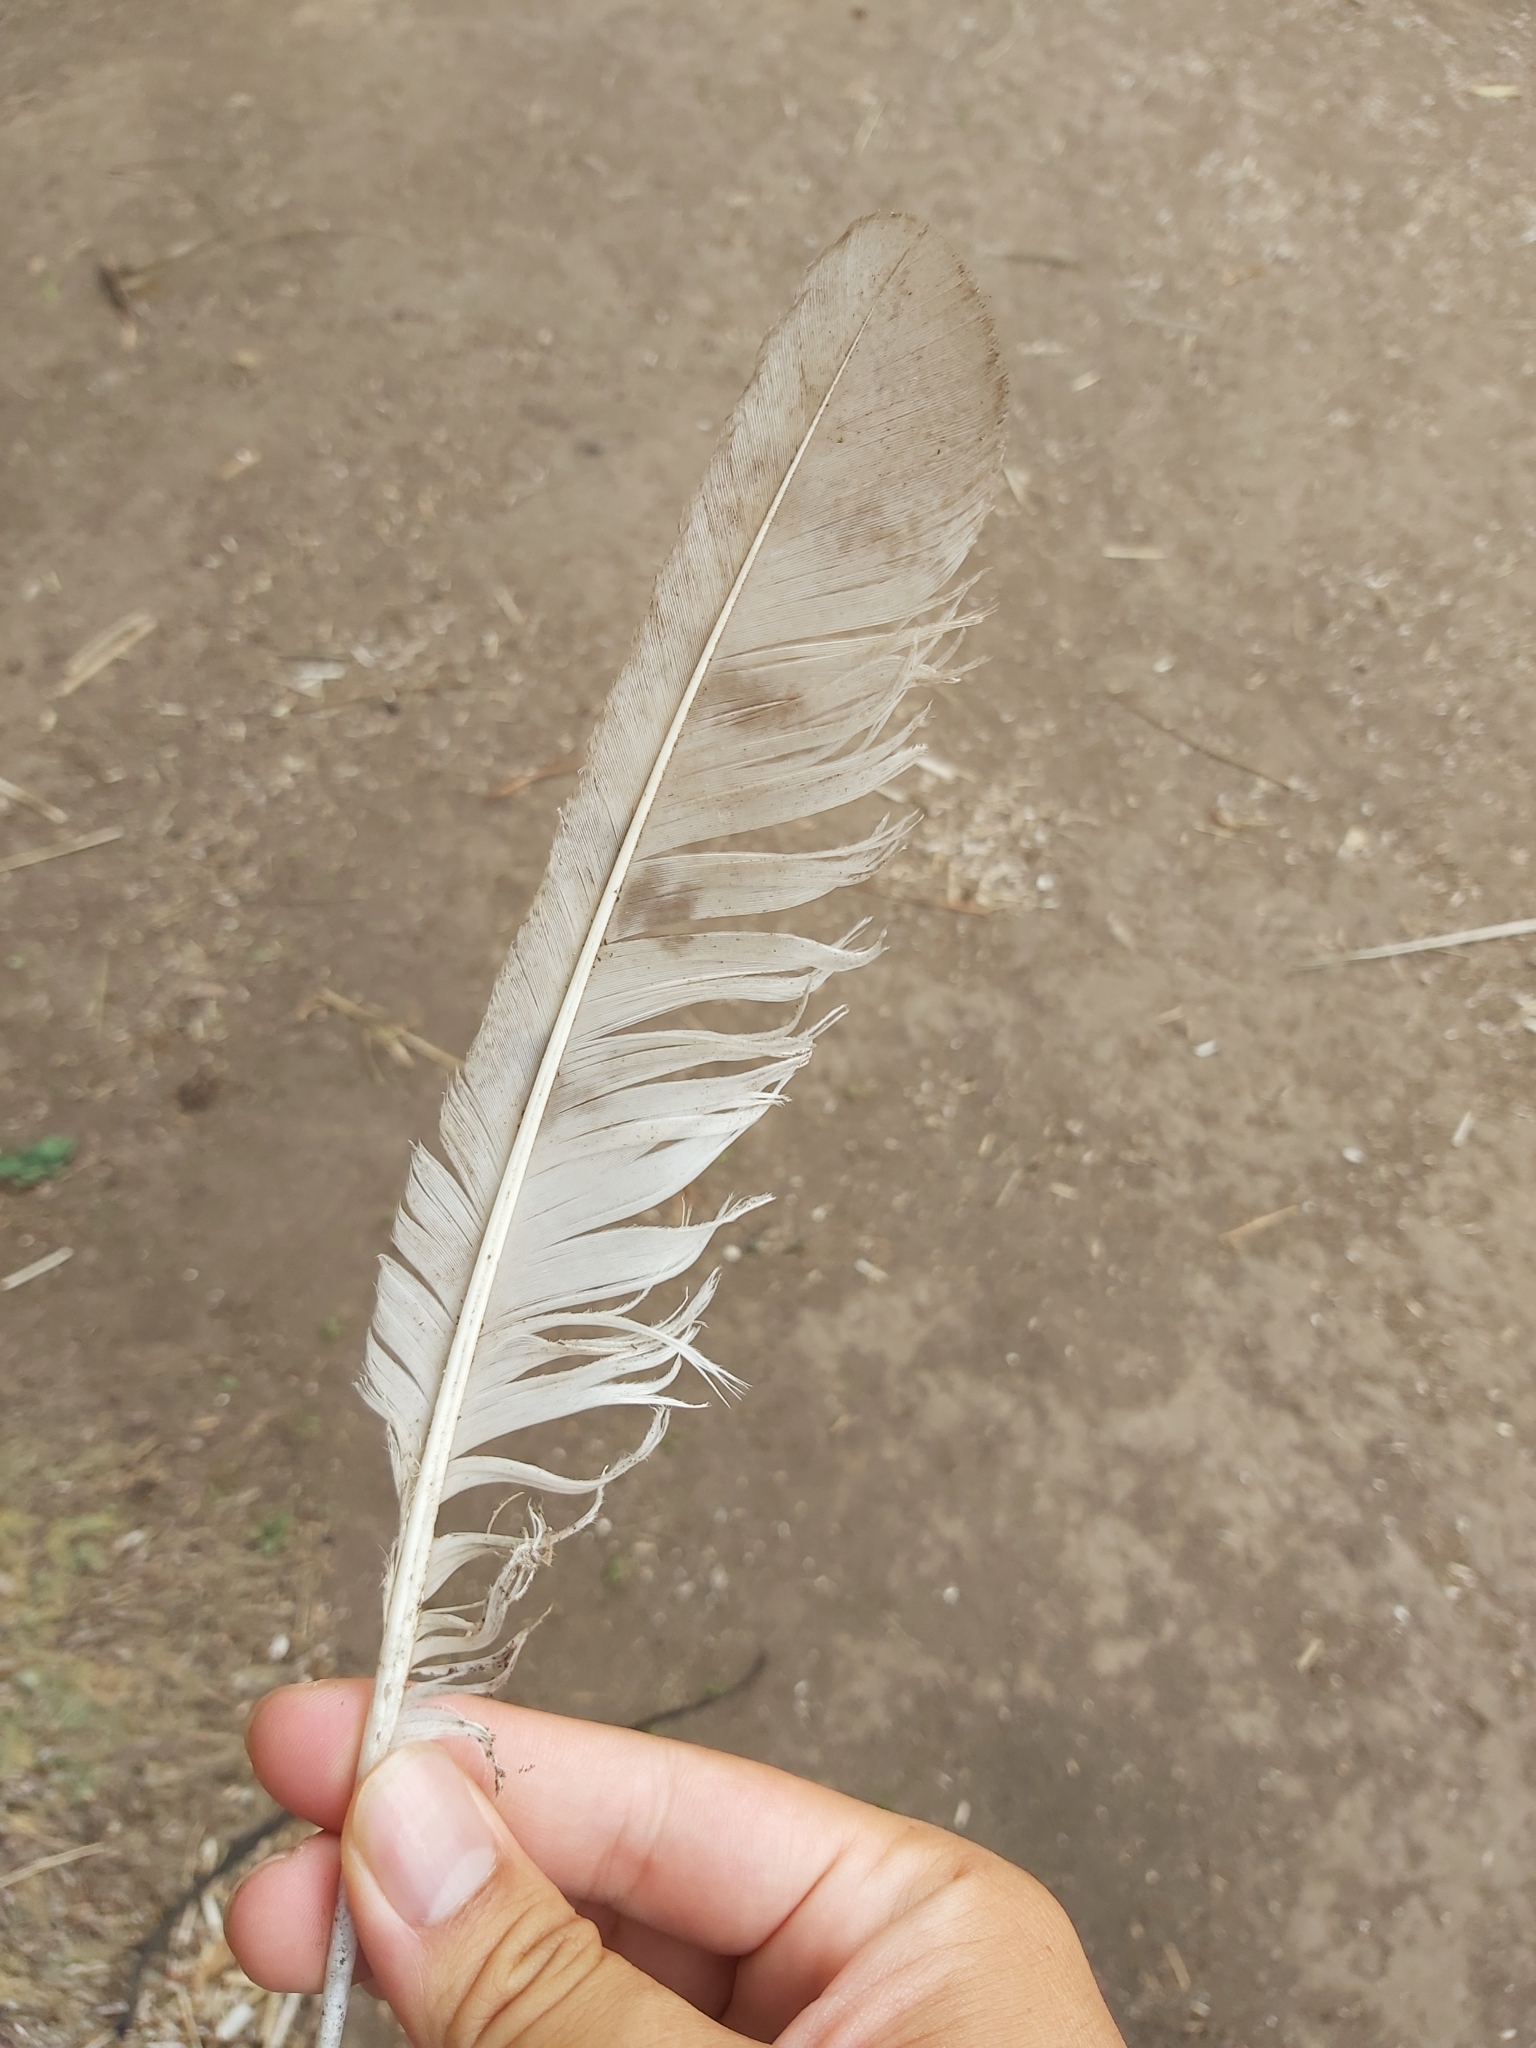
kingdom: Animalia
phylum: Chordata
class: Aves
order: Strigiformes
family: Tytonidae
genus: Tyto
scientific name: Tyto alba
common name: Barn owl
